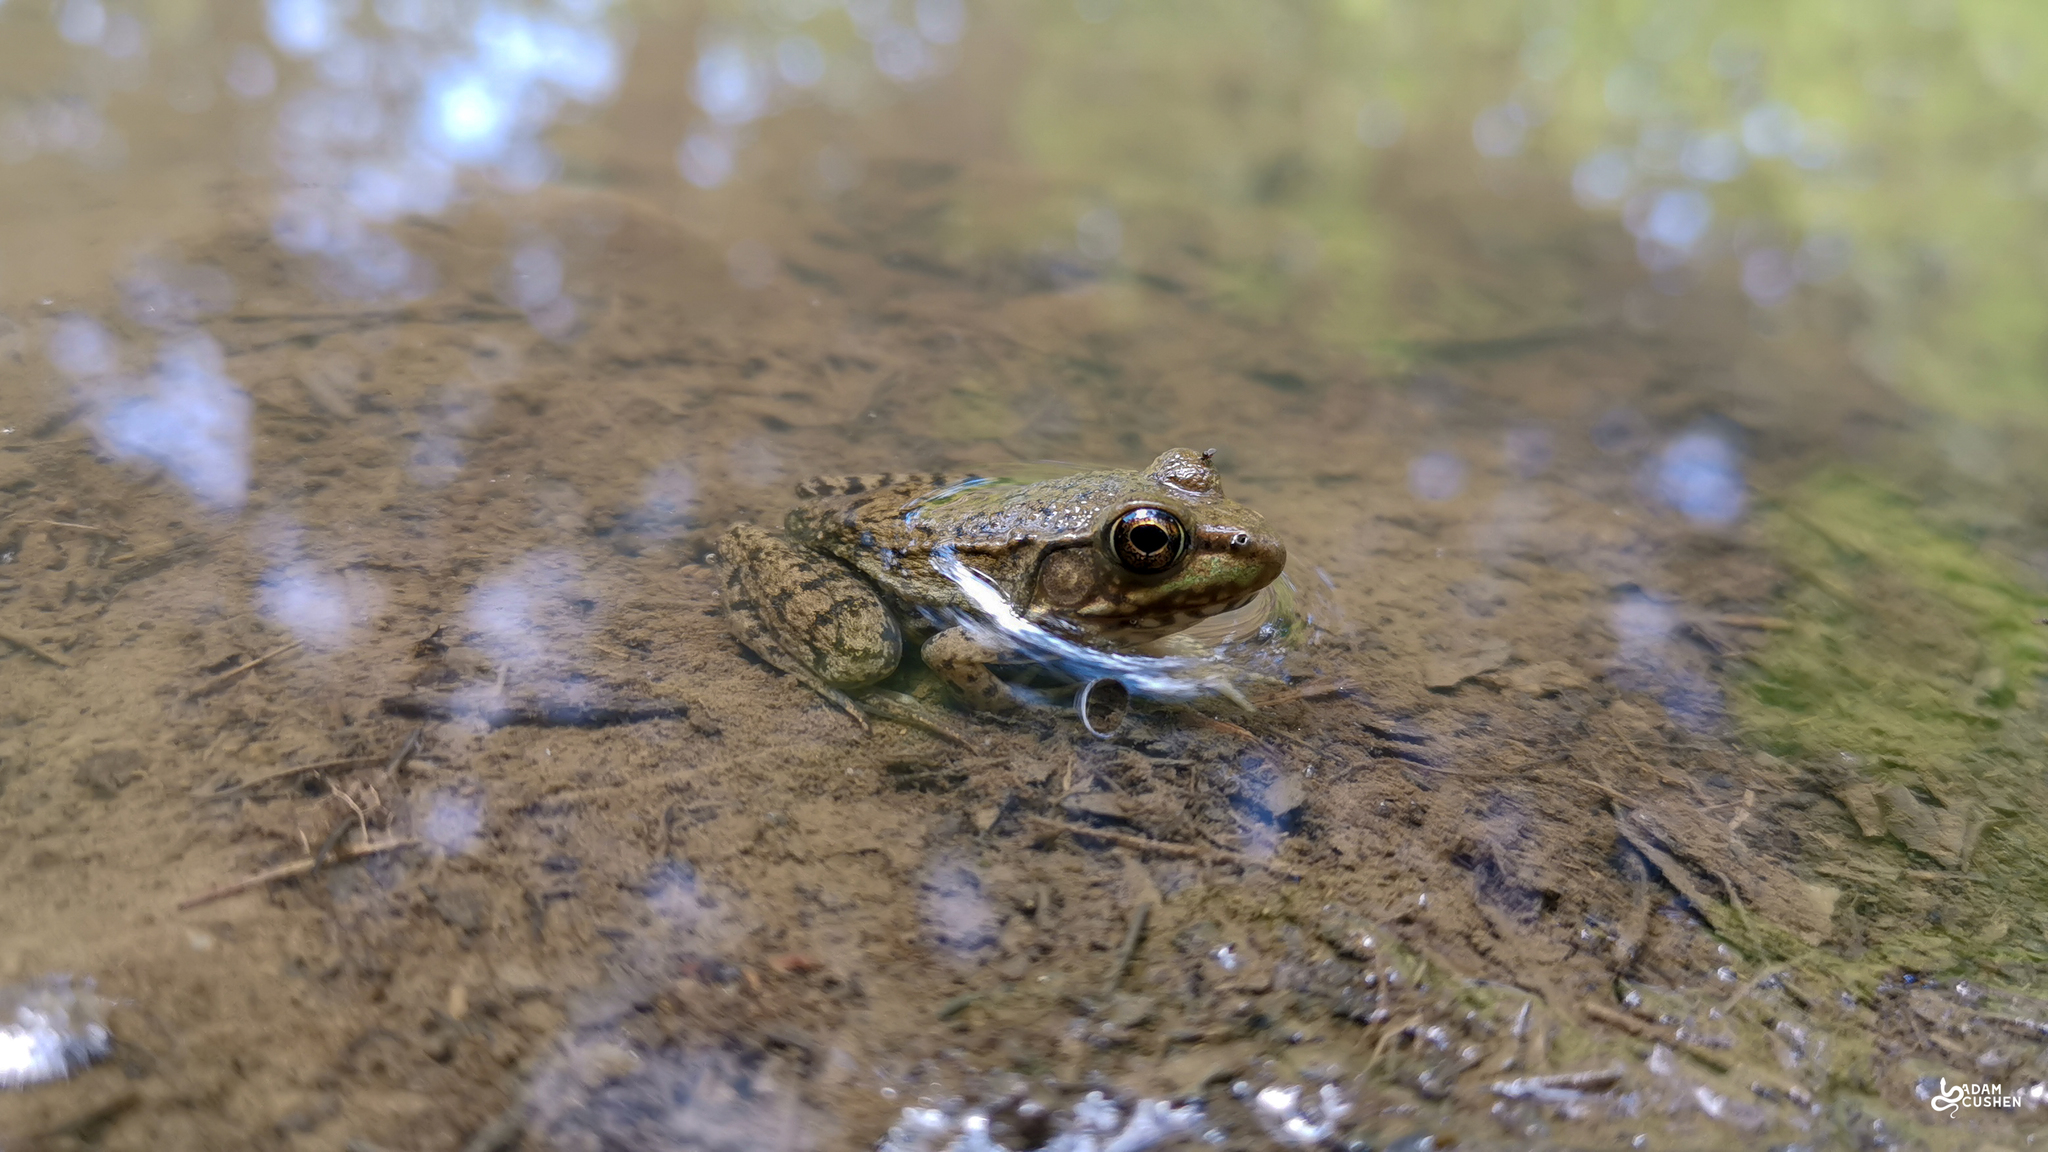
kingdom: Animalia
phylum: Chordata
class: Amphibia
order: Anura
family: Ranidae
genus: Lithobates
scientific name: Lithobates clamitans
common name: Green frog
